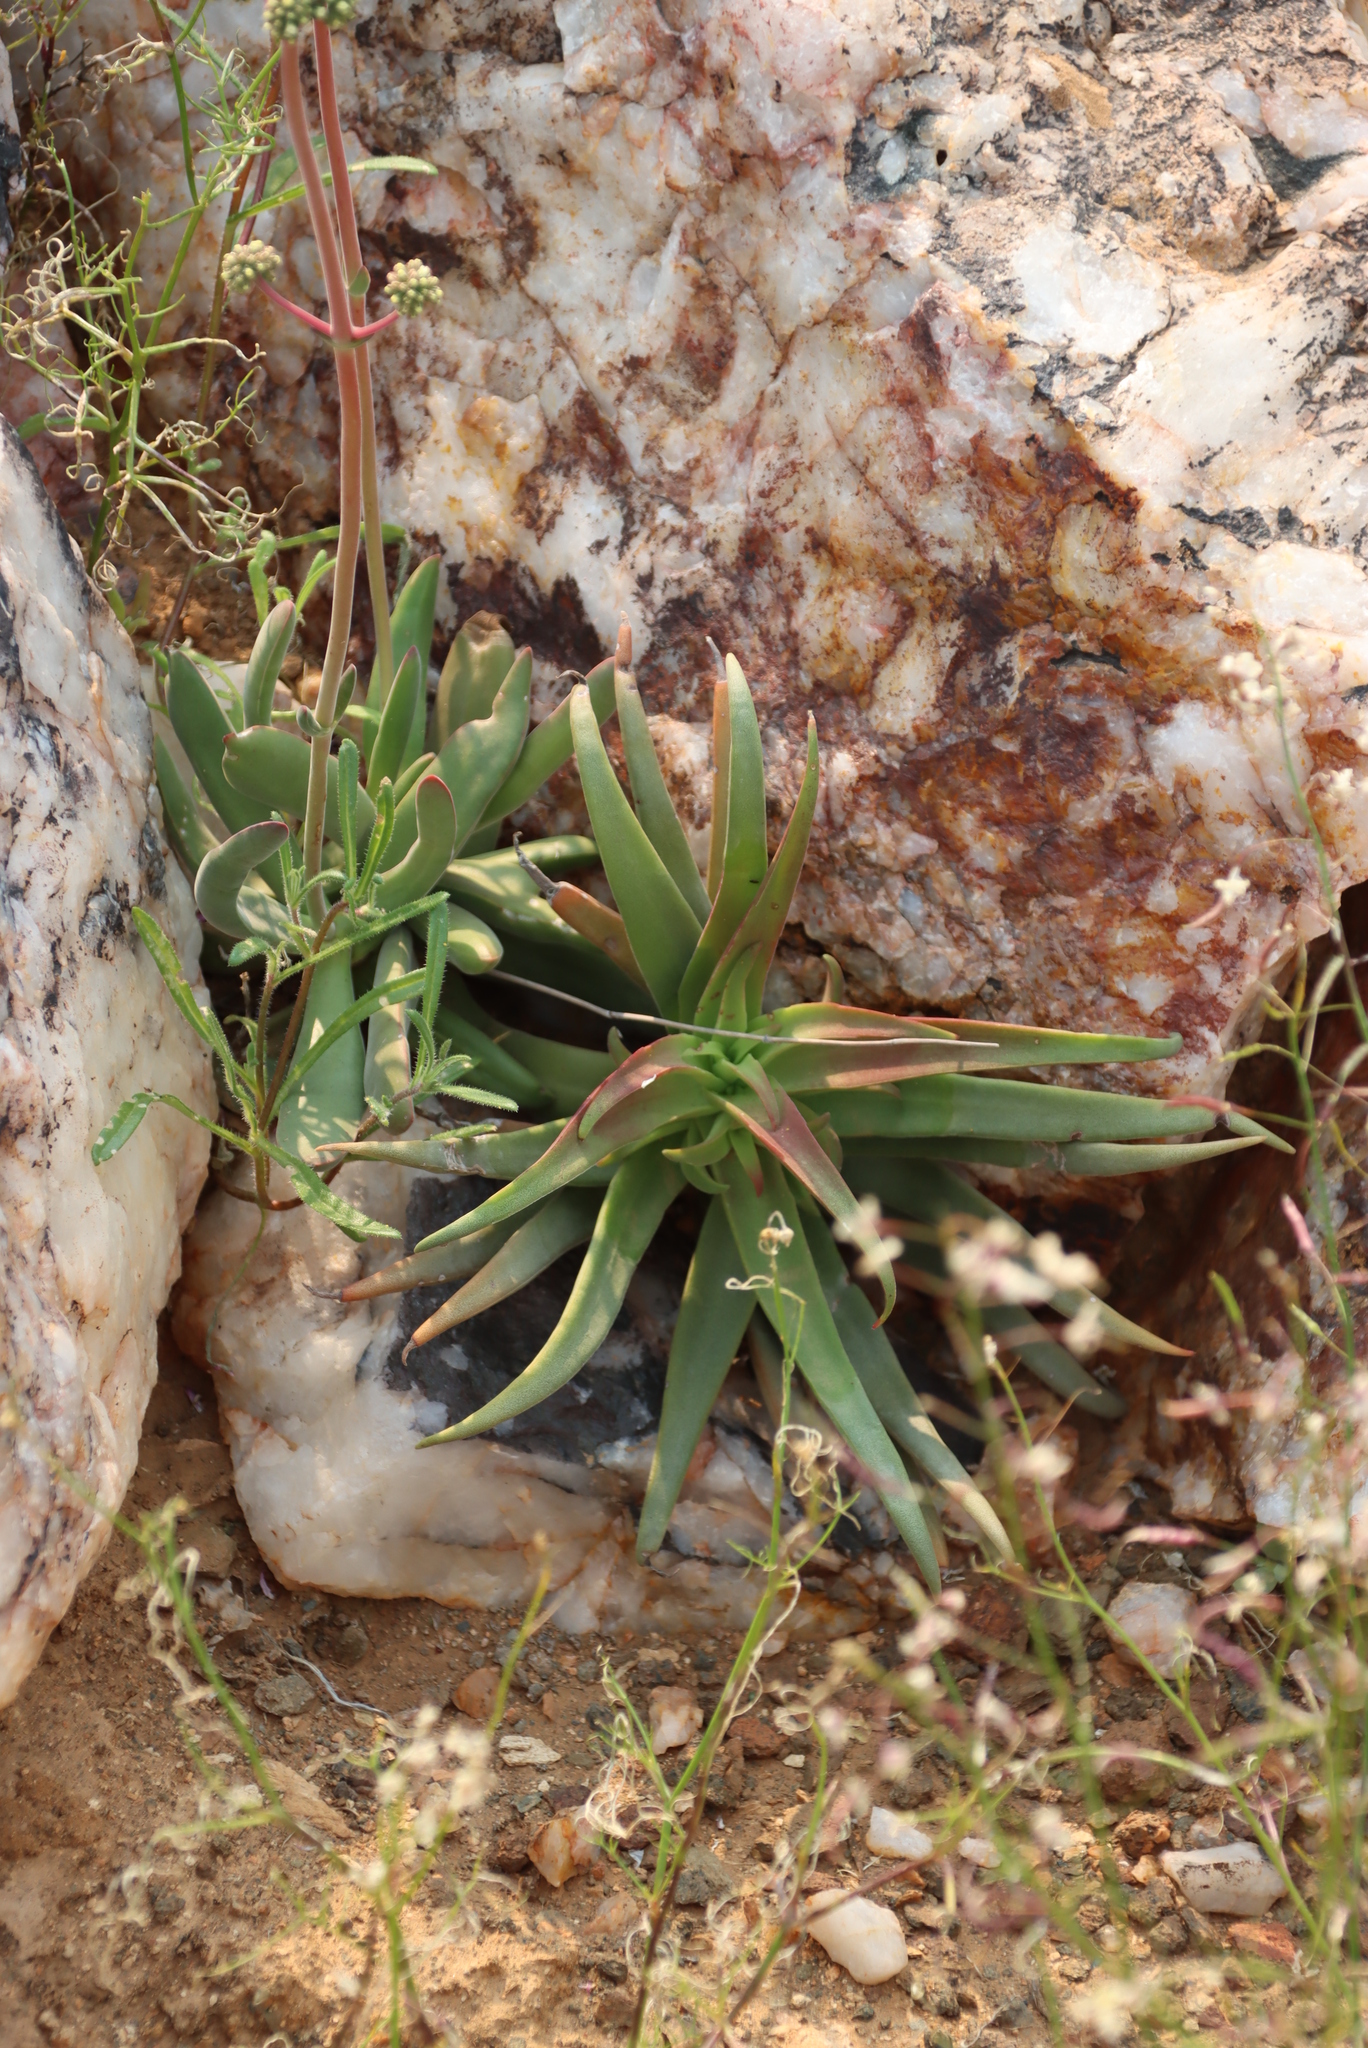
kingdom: Plantae
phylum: Tracheophyta
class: Magnoliopsida
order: Saxifragales
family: Crassulaceae
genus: Crassula
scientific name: Crassula fusca
